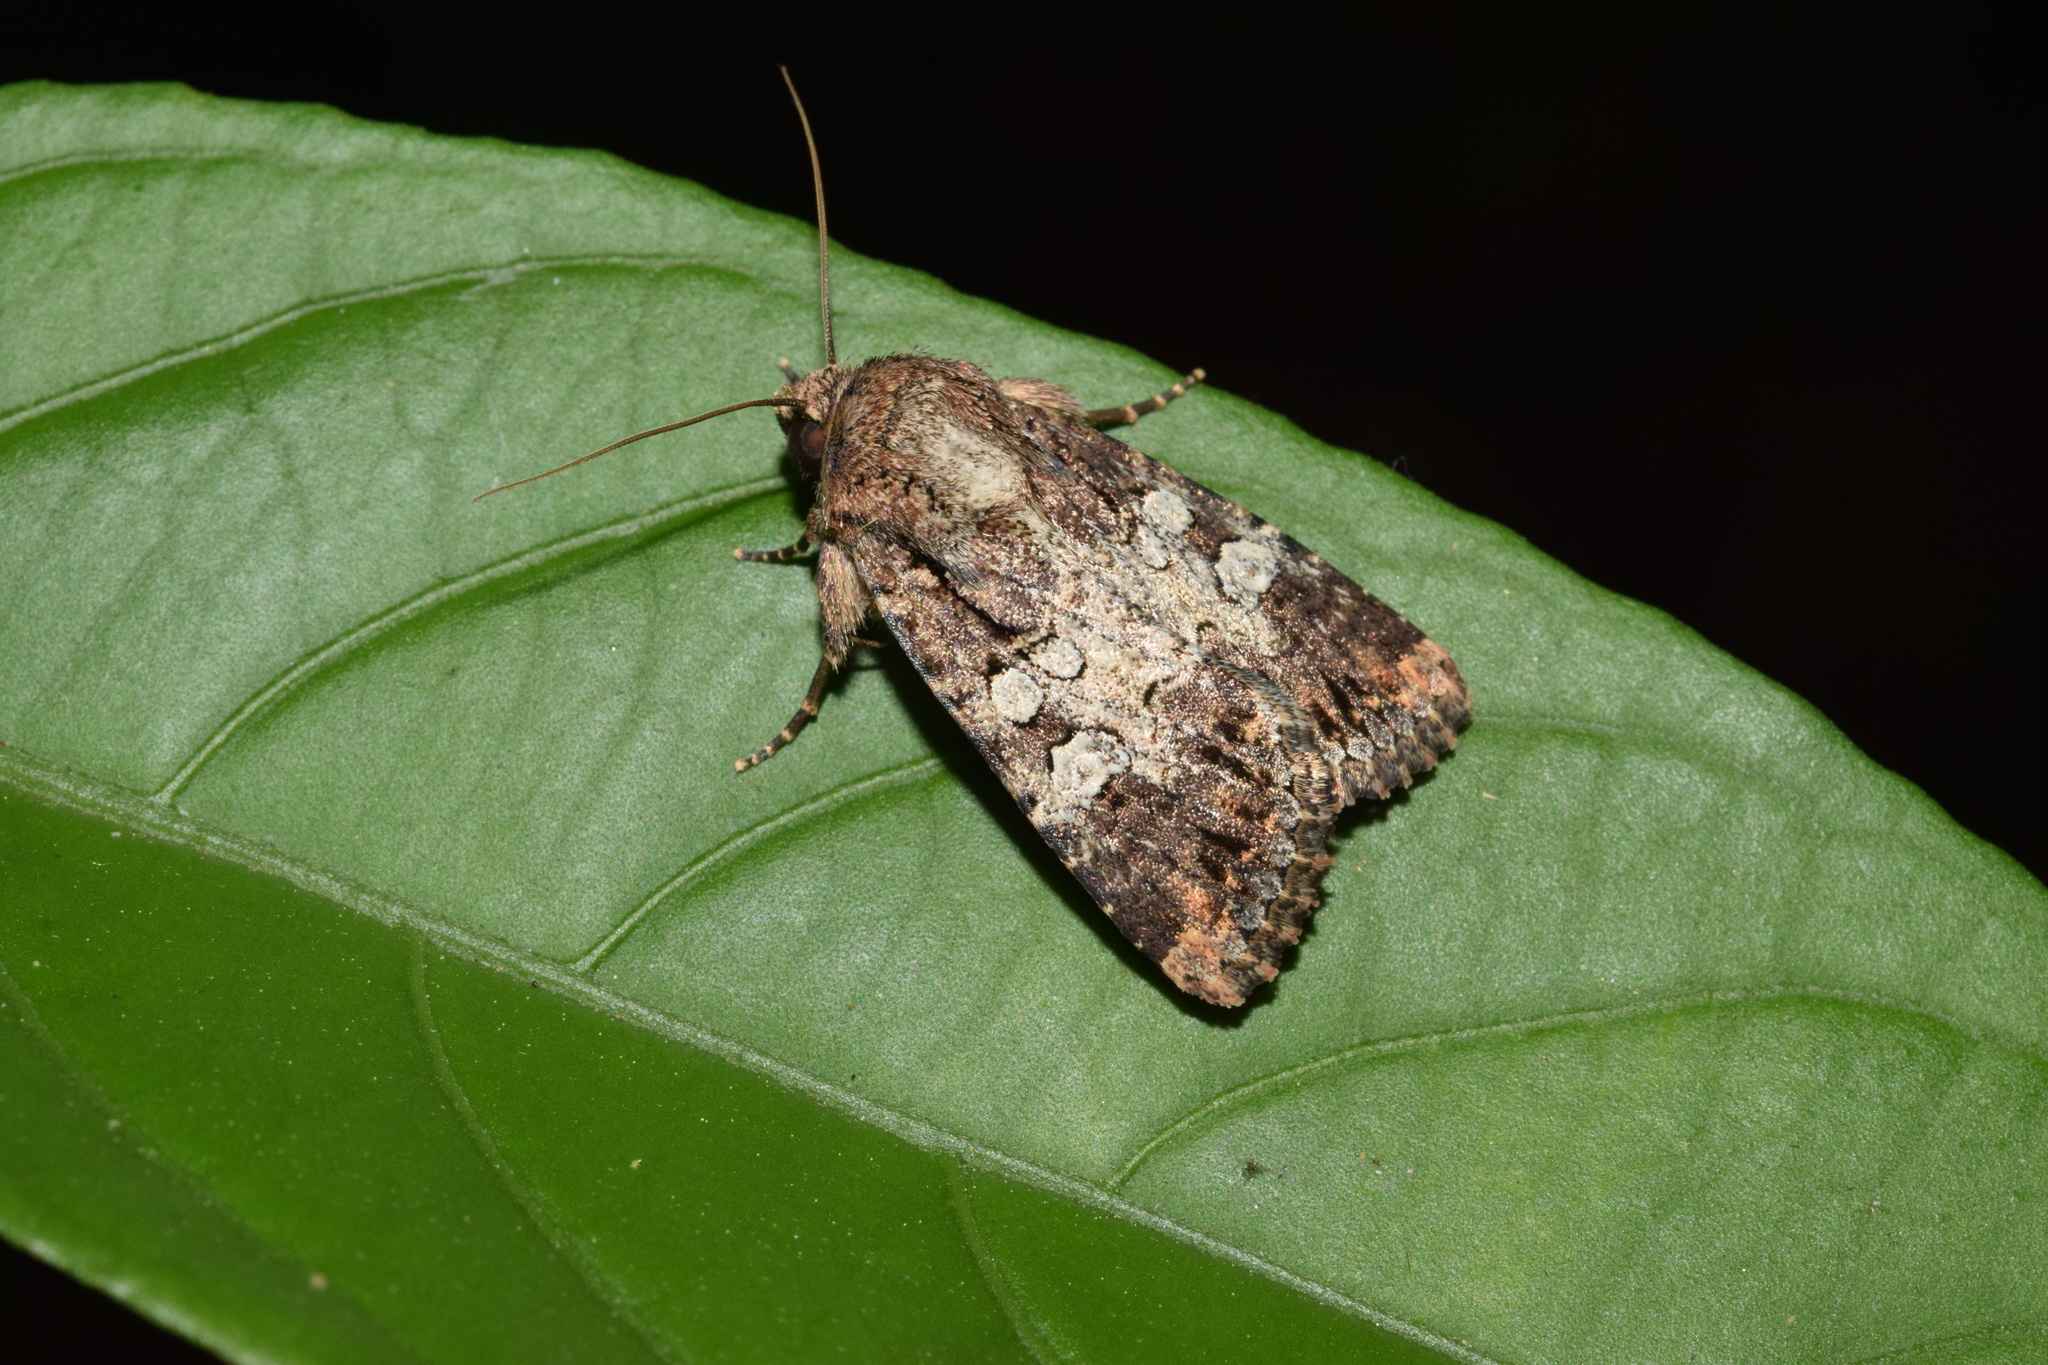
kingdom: Animalia
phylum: Arthropoda
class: Insecta
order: Lepidoptera
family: Noctuidae
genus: Omphalestra
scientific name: Omphalestra mesoglauca
